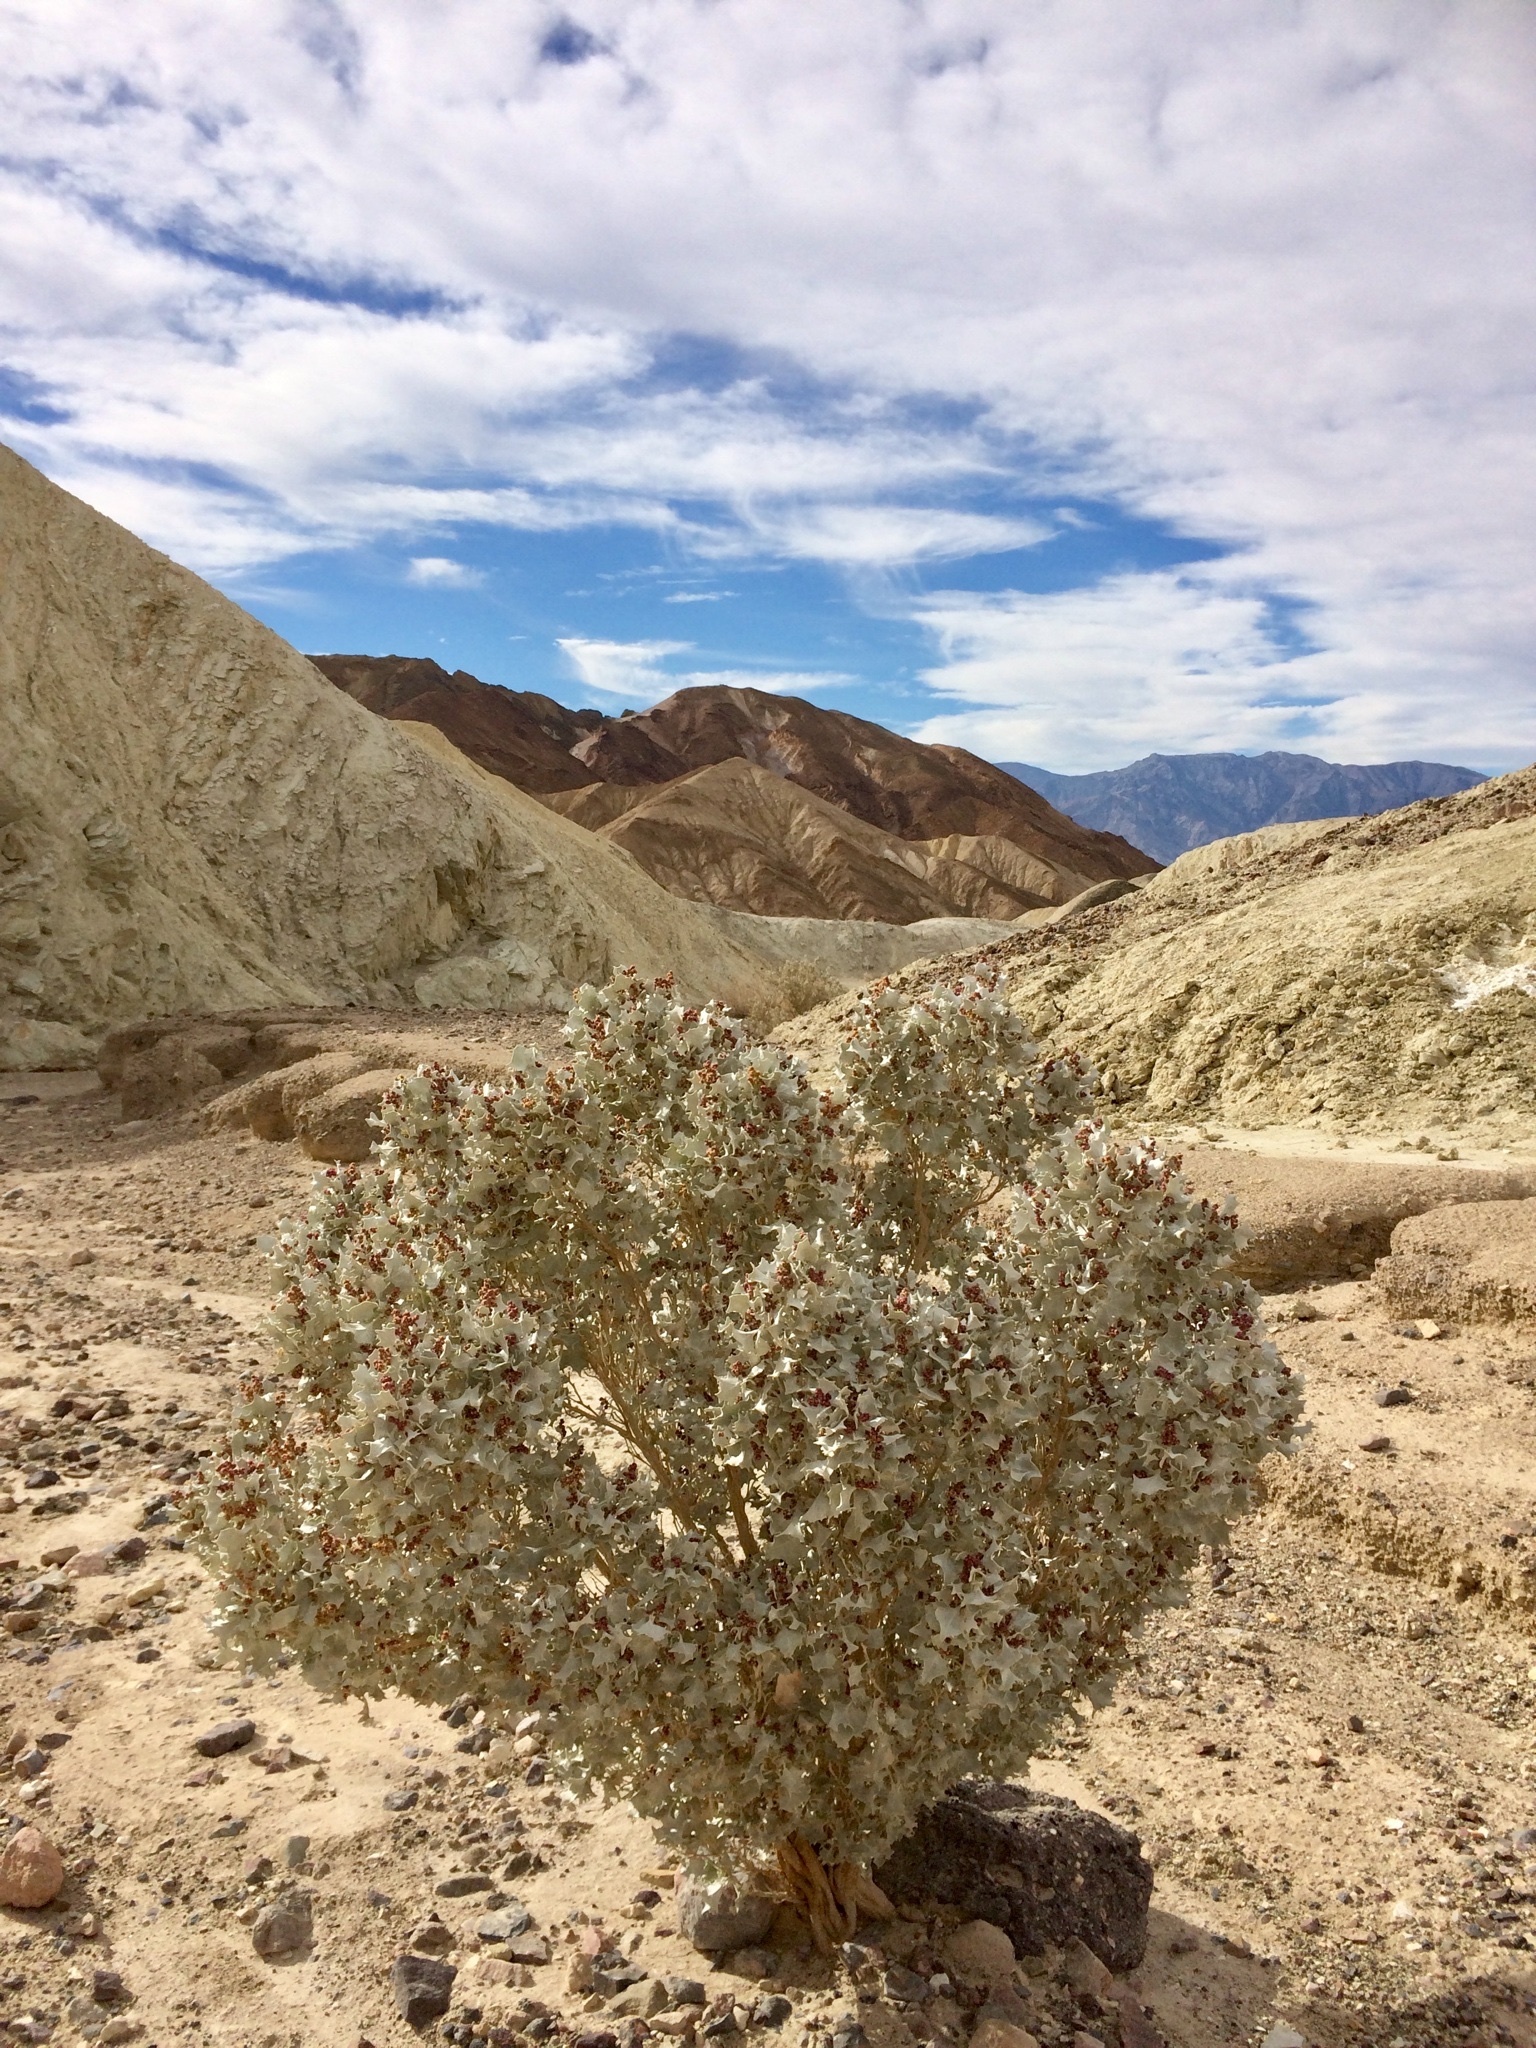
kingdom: Plantae
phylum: Tracheophyta
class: Magnoliopsida
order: Caryophyllales
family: Amaranthaceae
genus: Atriplex
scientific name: Atriplex hymenelytra
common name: Desert-holly
